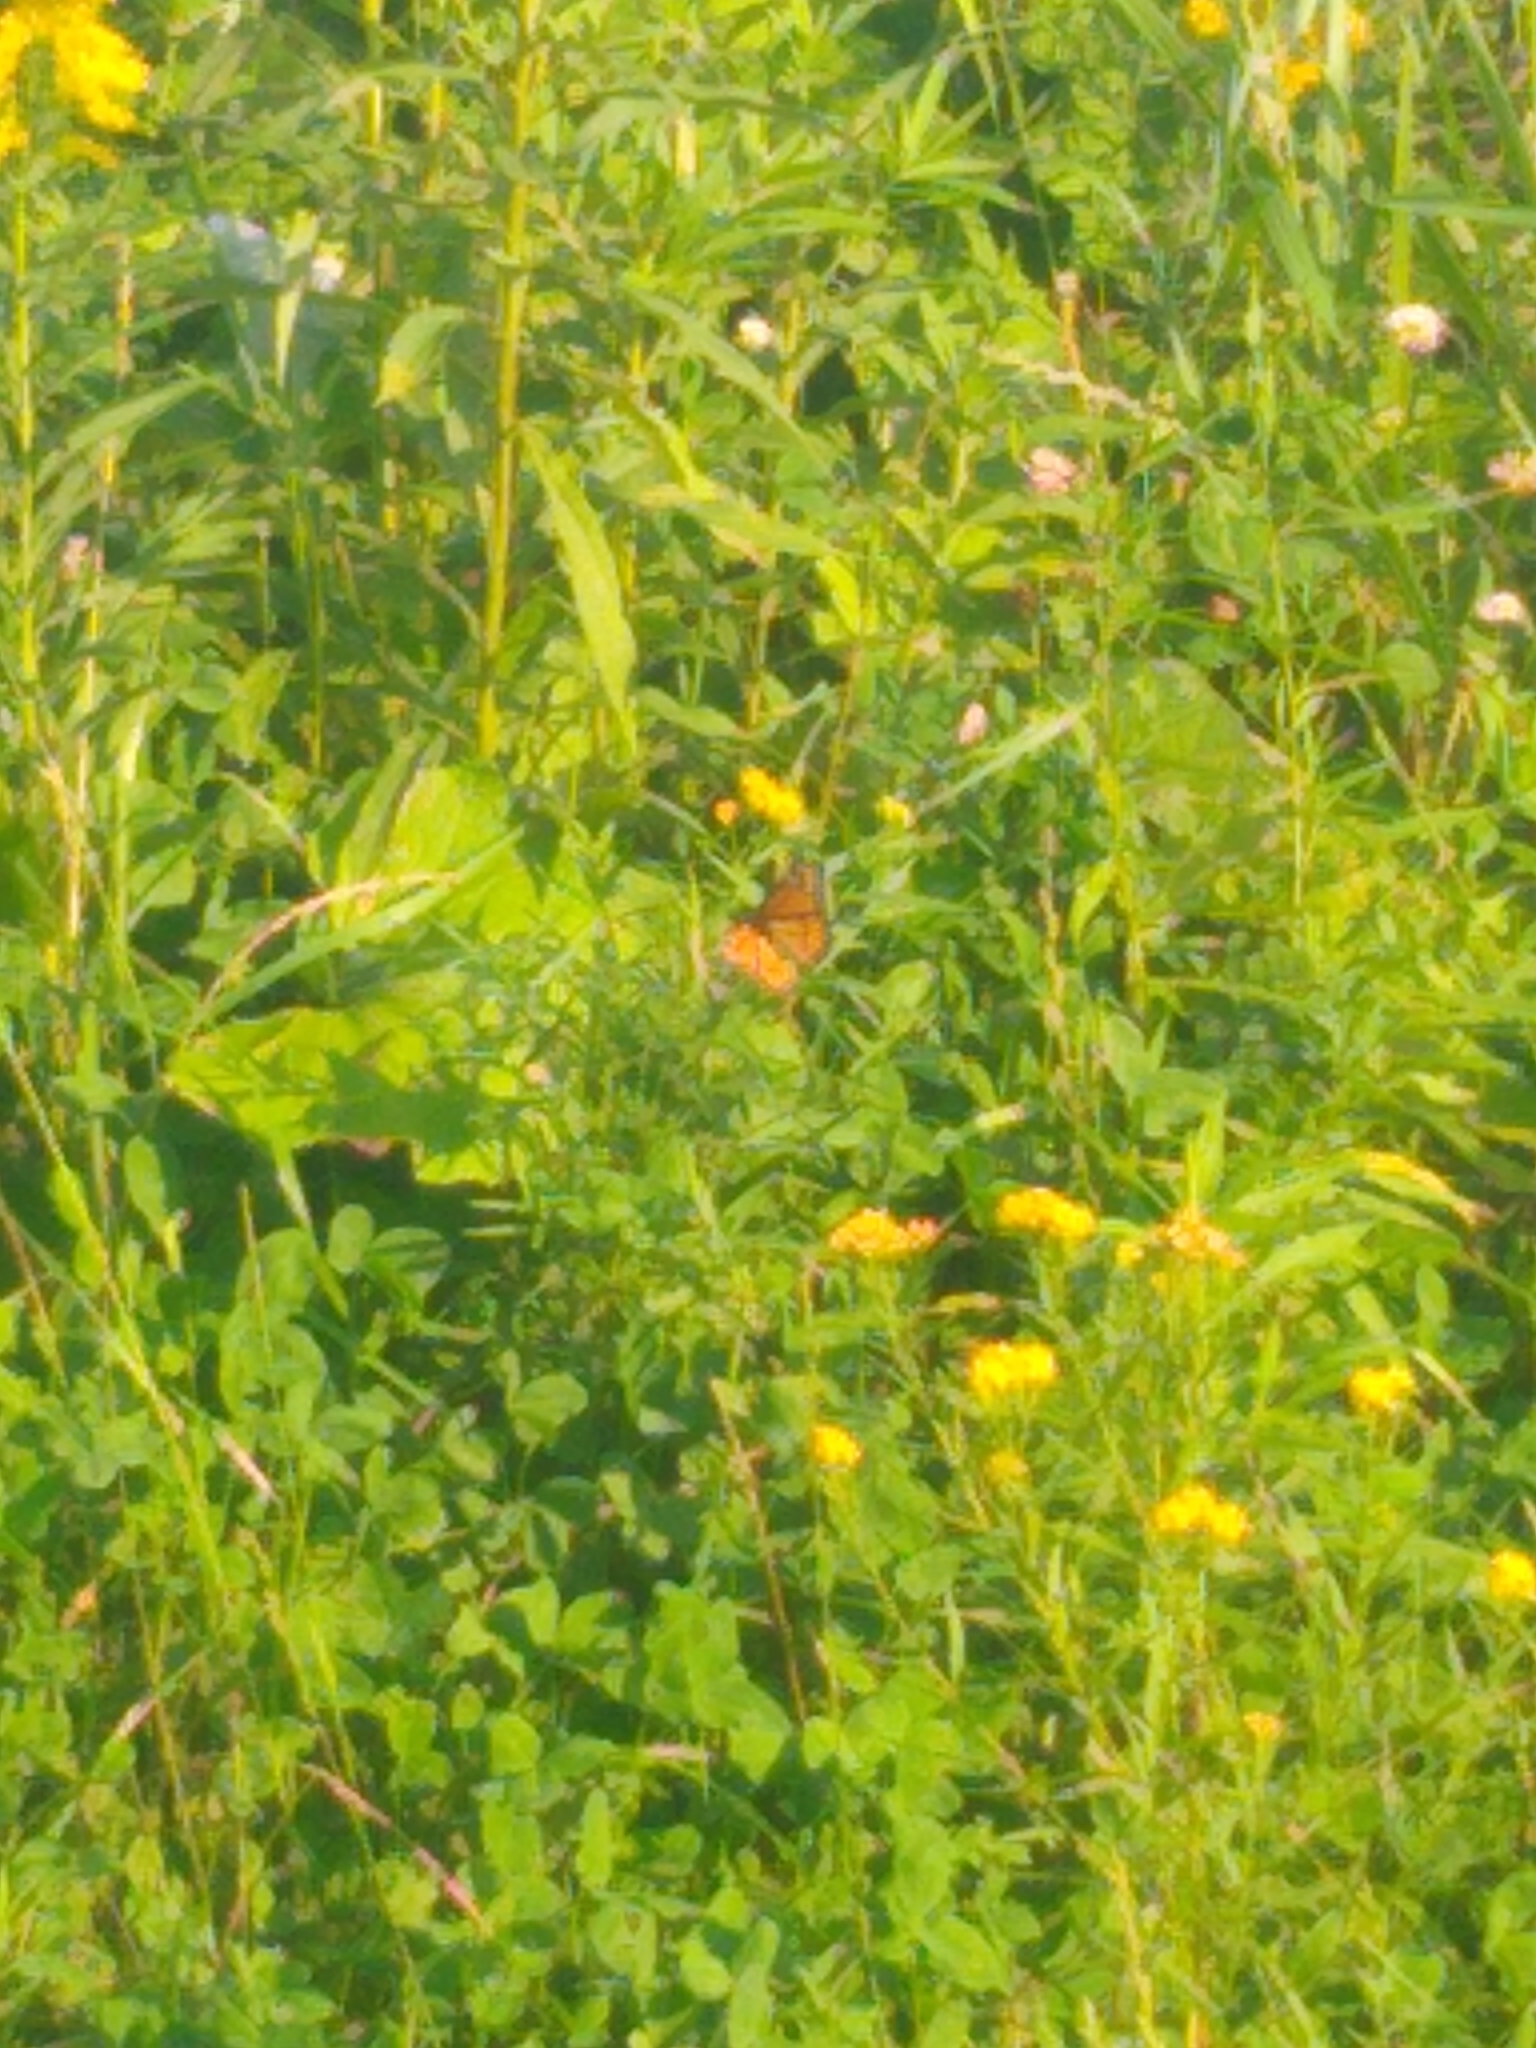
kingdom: Animalia
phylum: Arthropoda
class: Insecta
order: Lepidoptera
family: Nymphalidae
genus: Limenitis
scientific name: Limenitis archippus
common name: Viceroy
